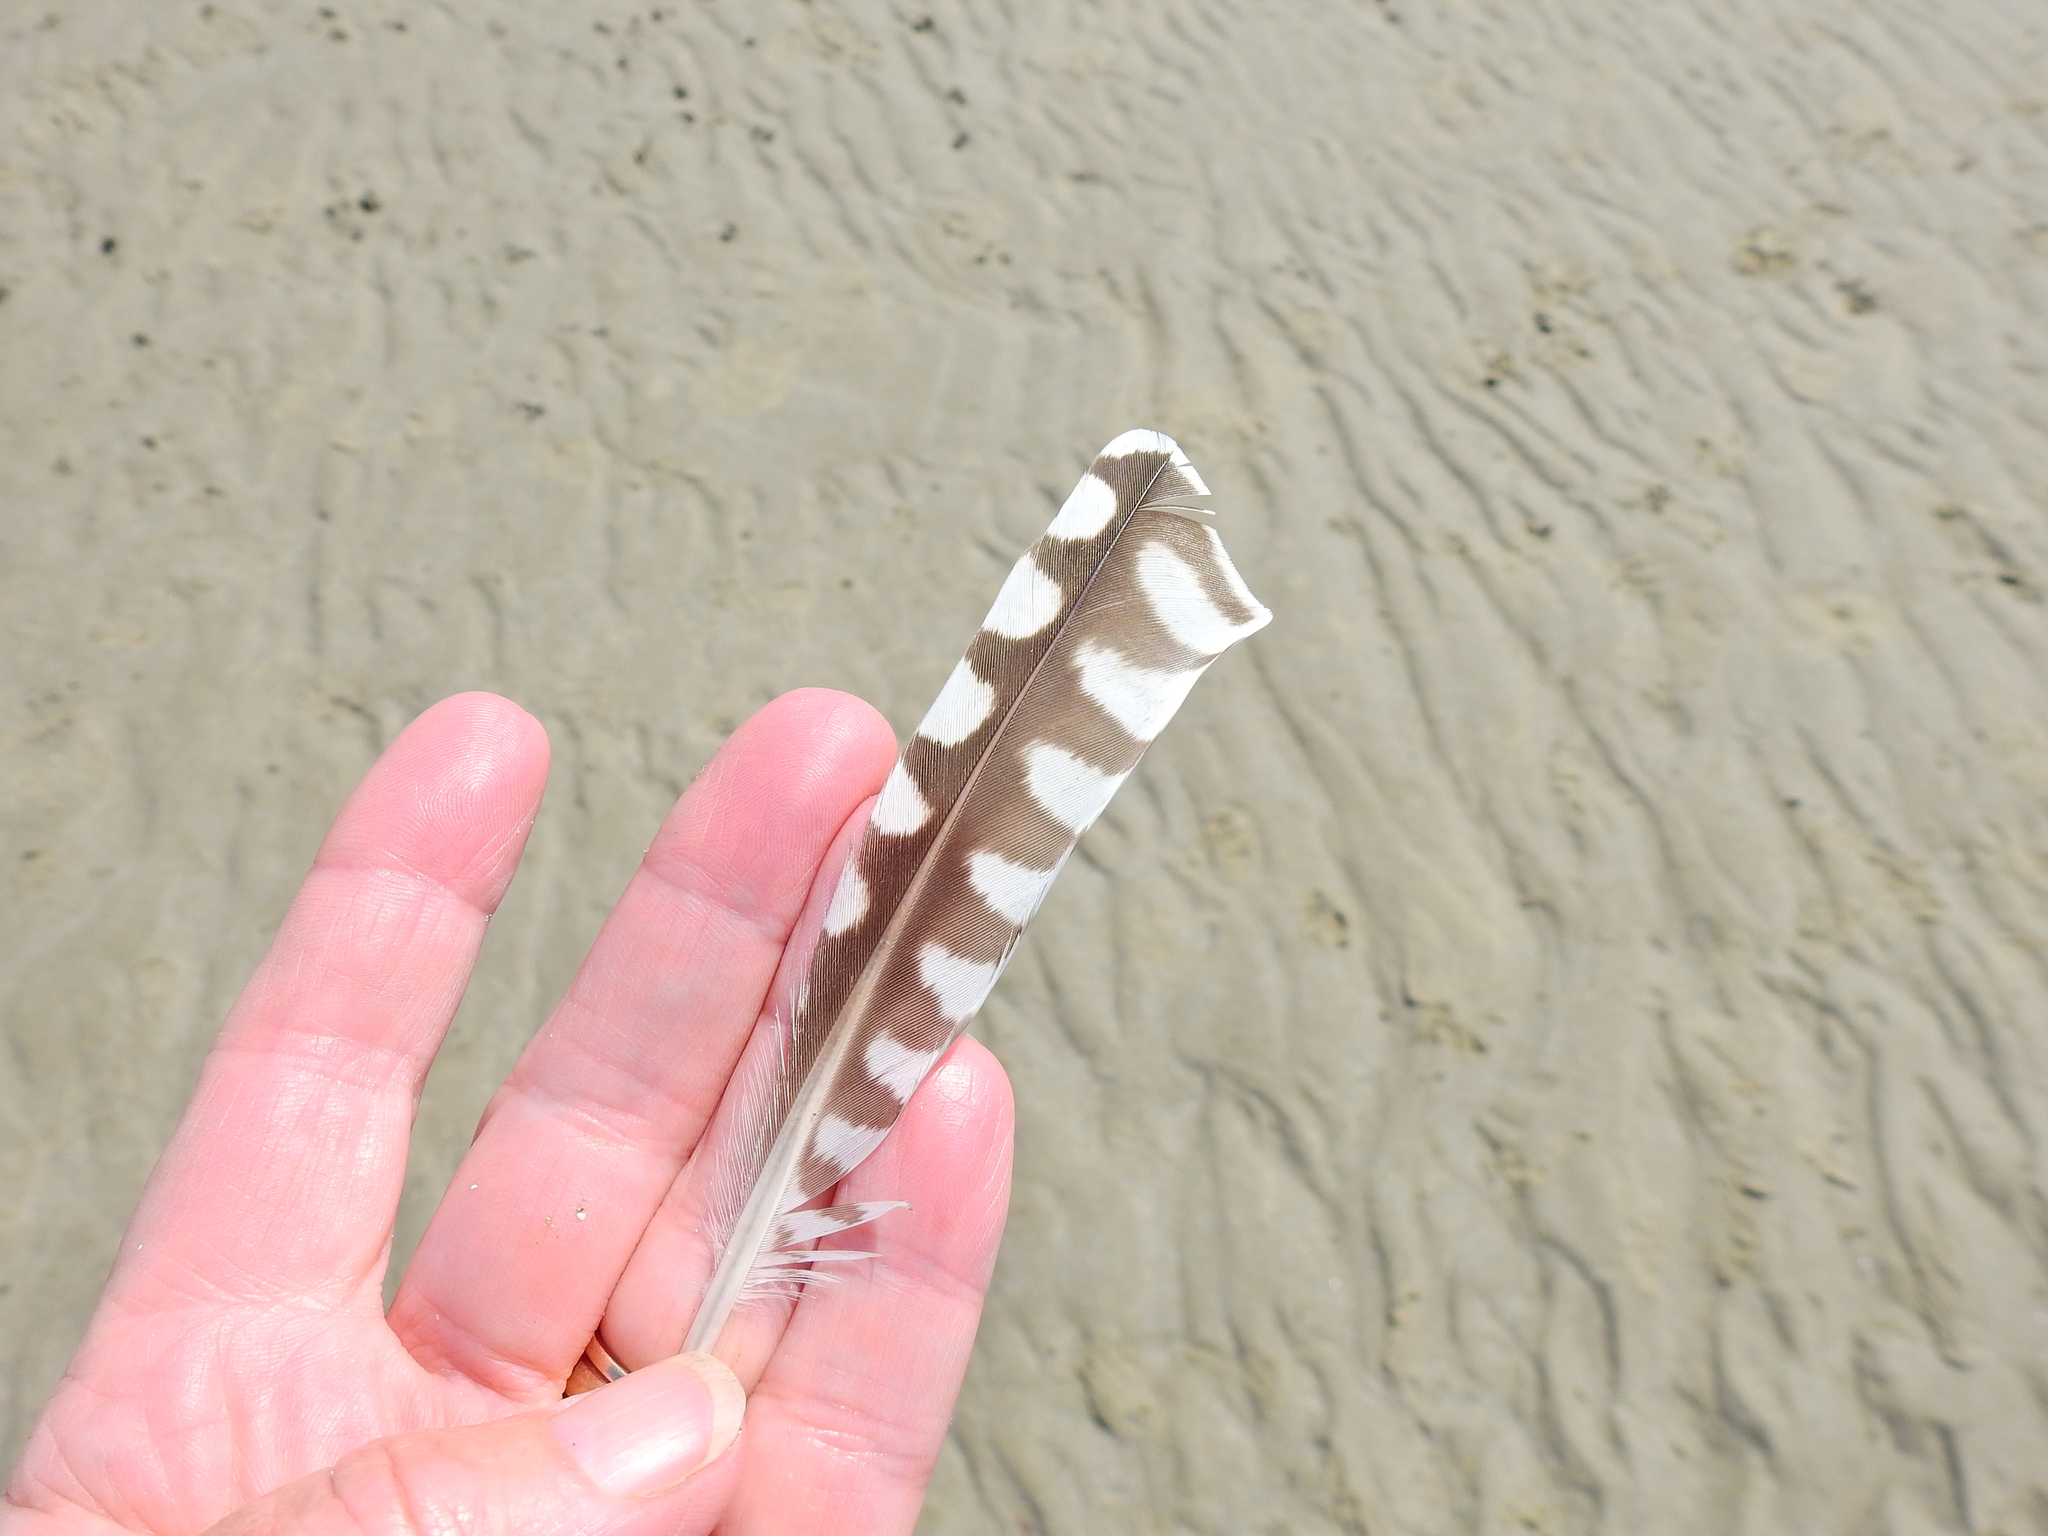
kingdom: Animalia
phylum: Chordata
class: Aves
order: Charadriiformes
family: Scolopacidae
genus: Numenius
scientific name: Numenius arquata
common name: Eurasian curlew
